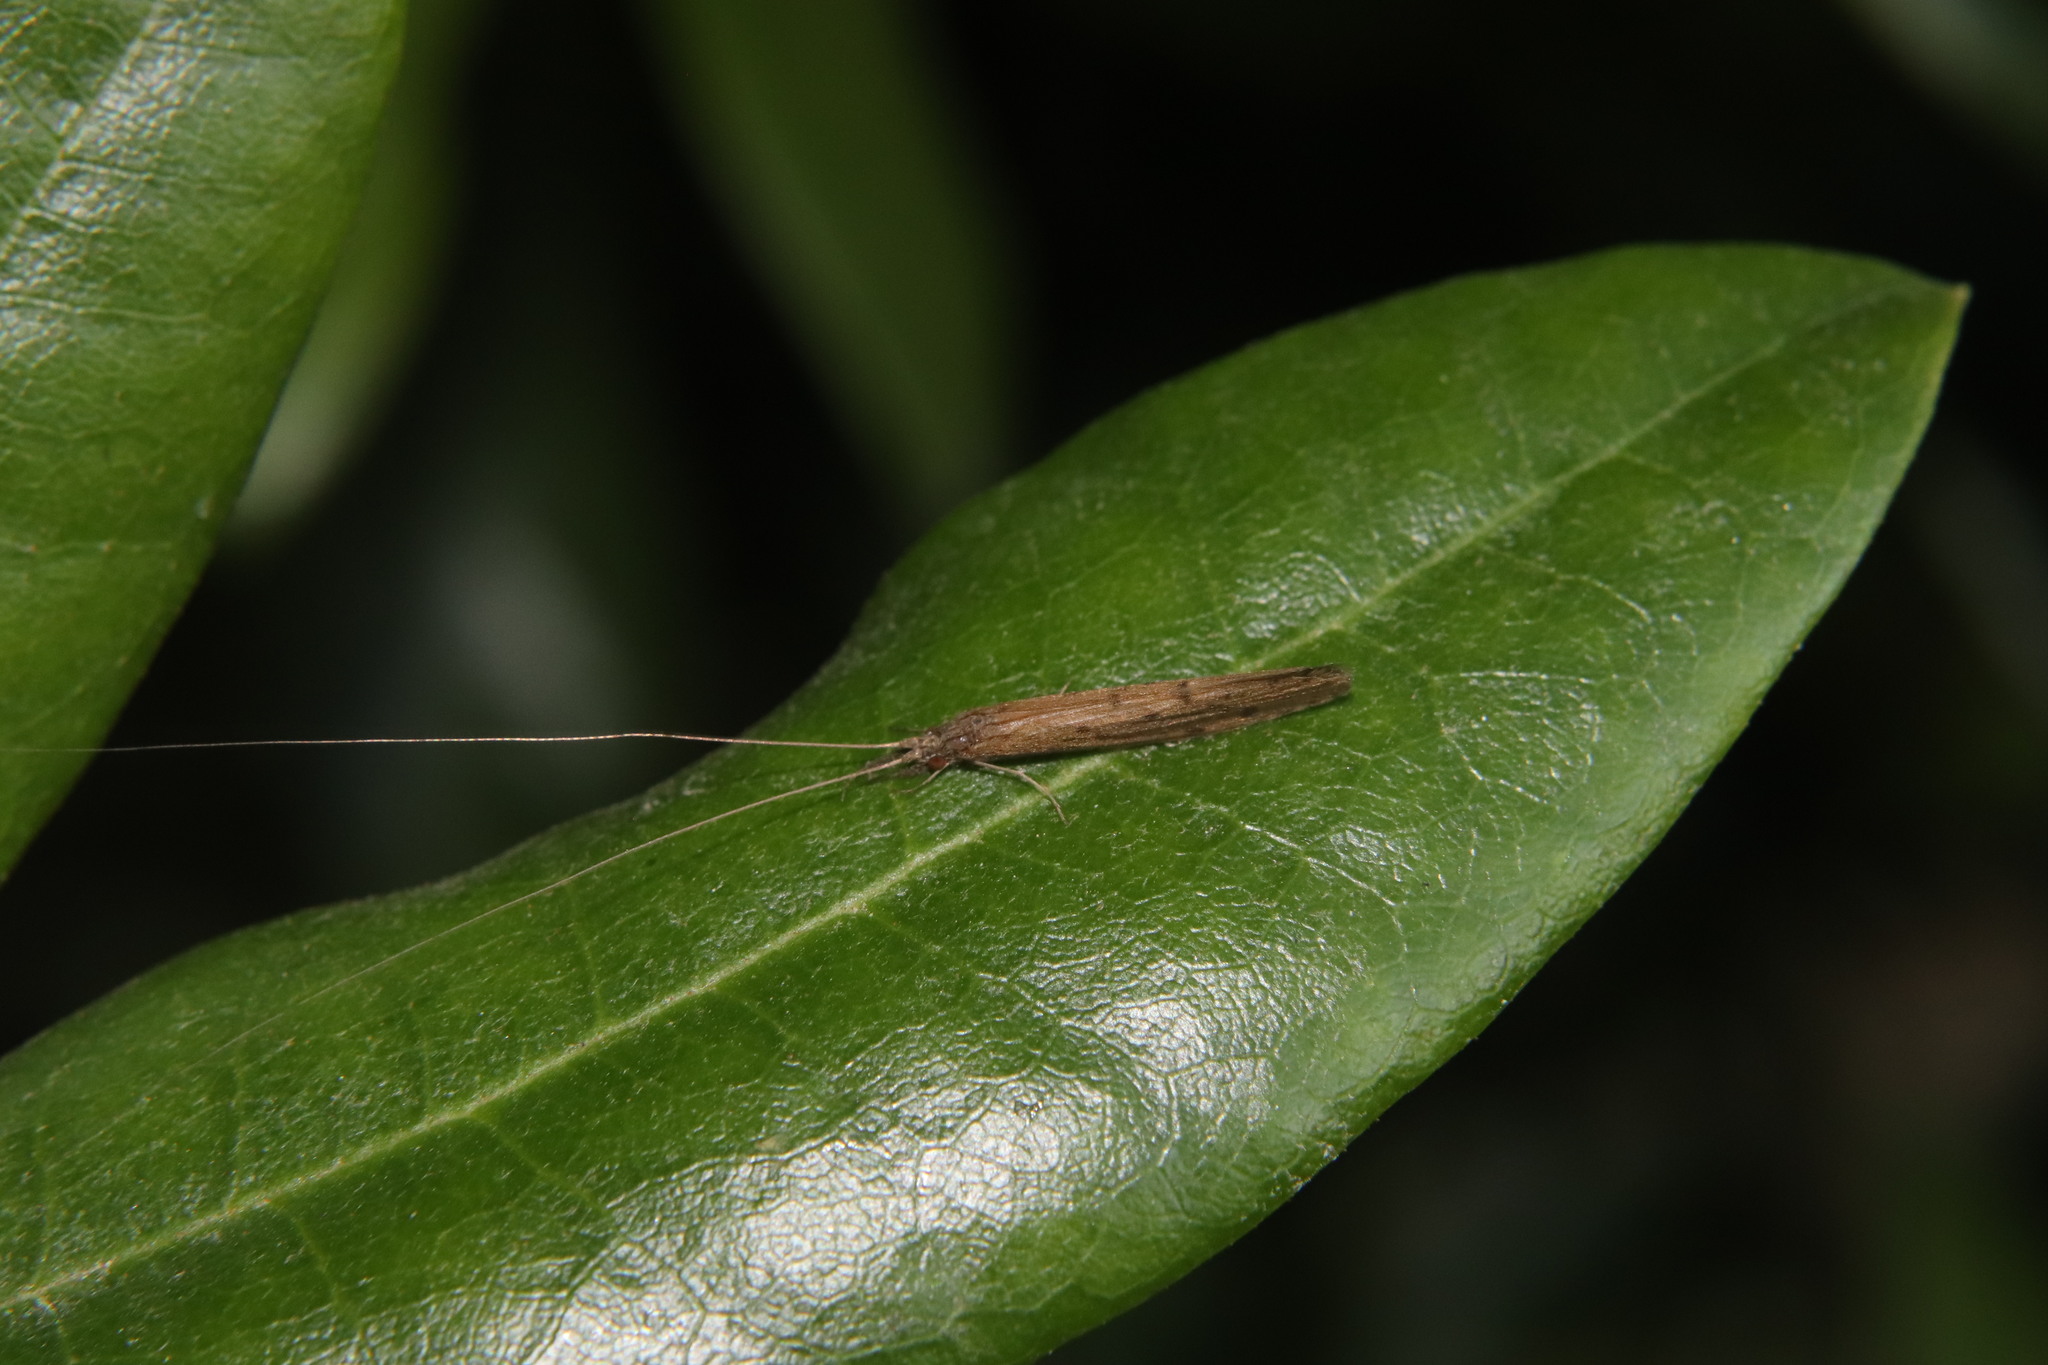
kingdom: Animalia
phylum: Arthropoda
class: Insecta
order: Trichoptera
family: Leptoceridae
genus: Oecetis
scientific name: Oecetis unicolor
